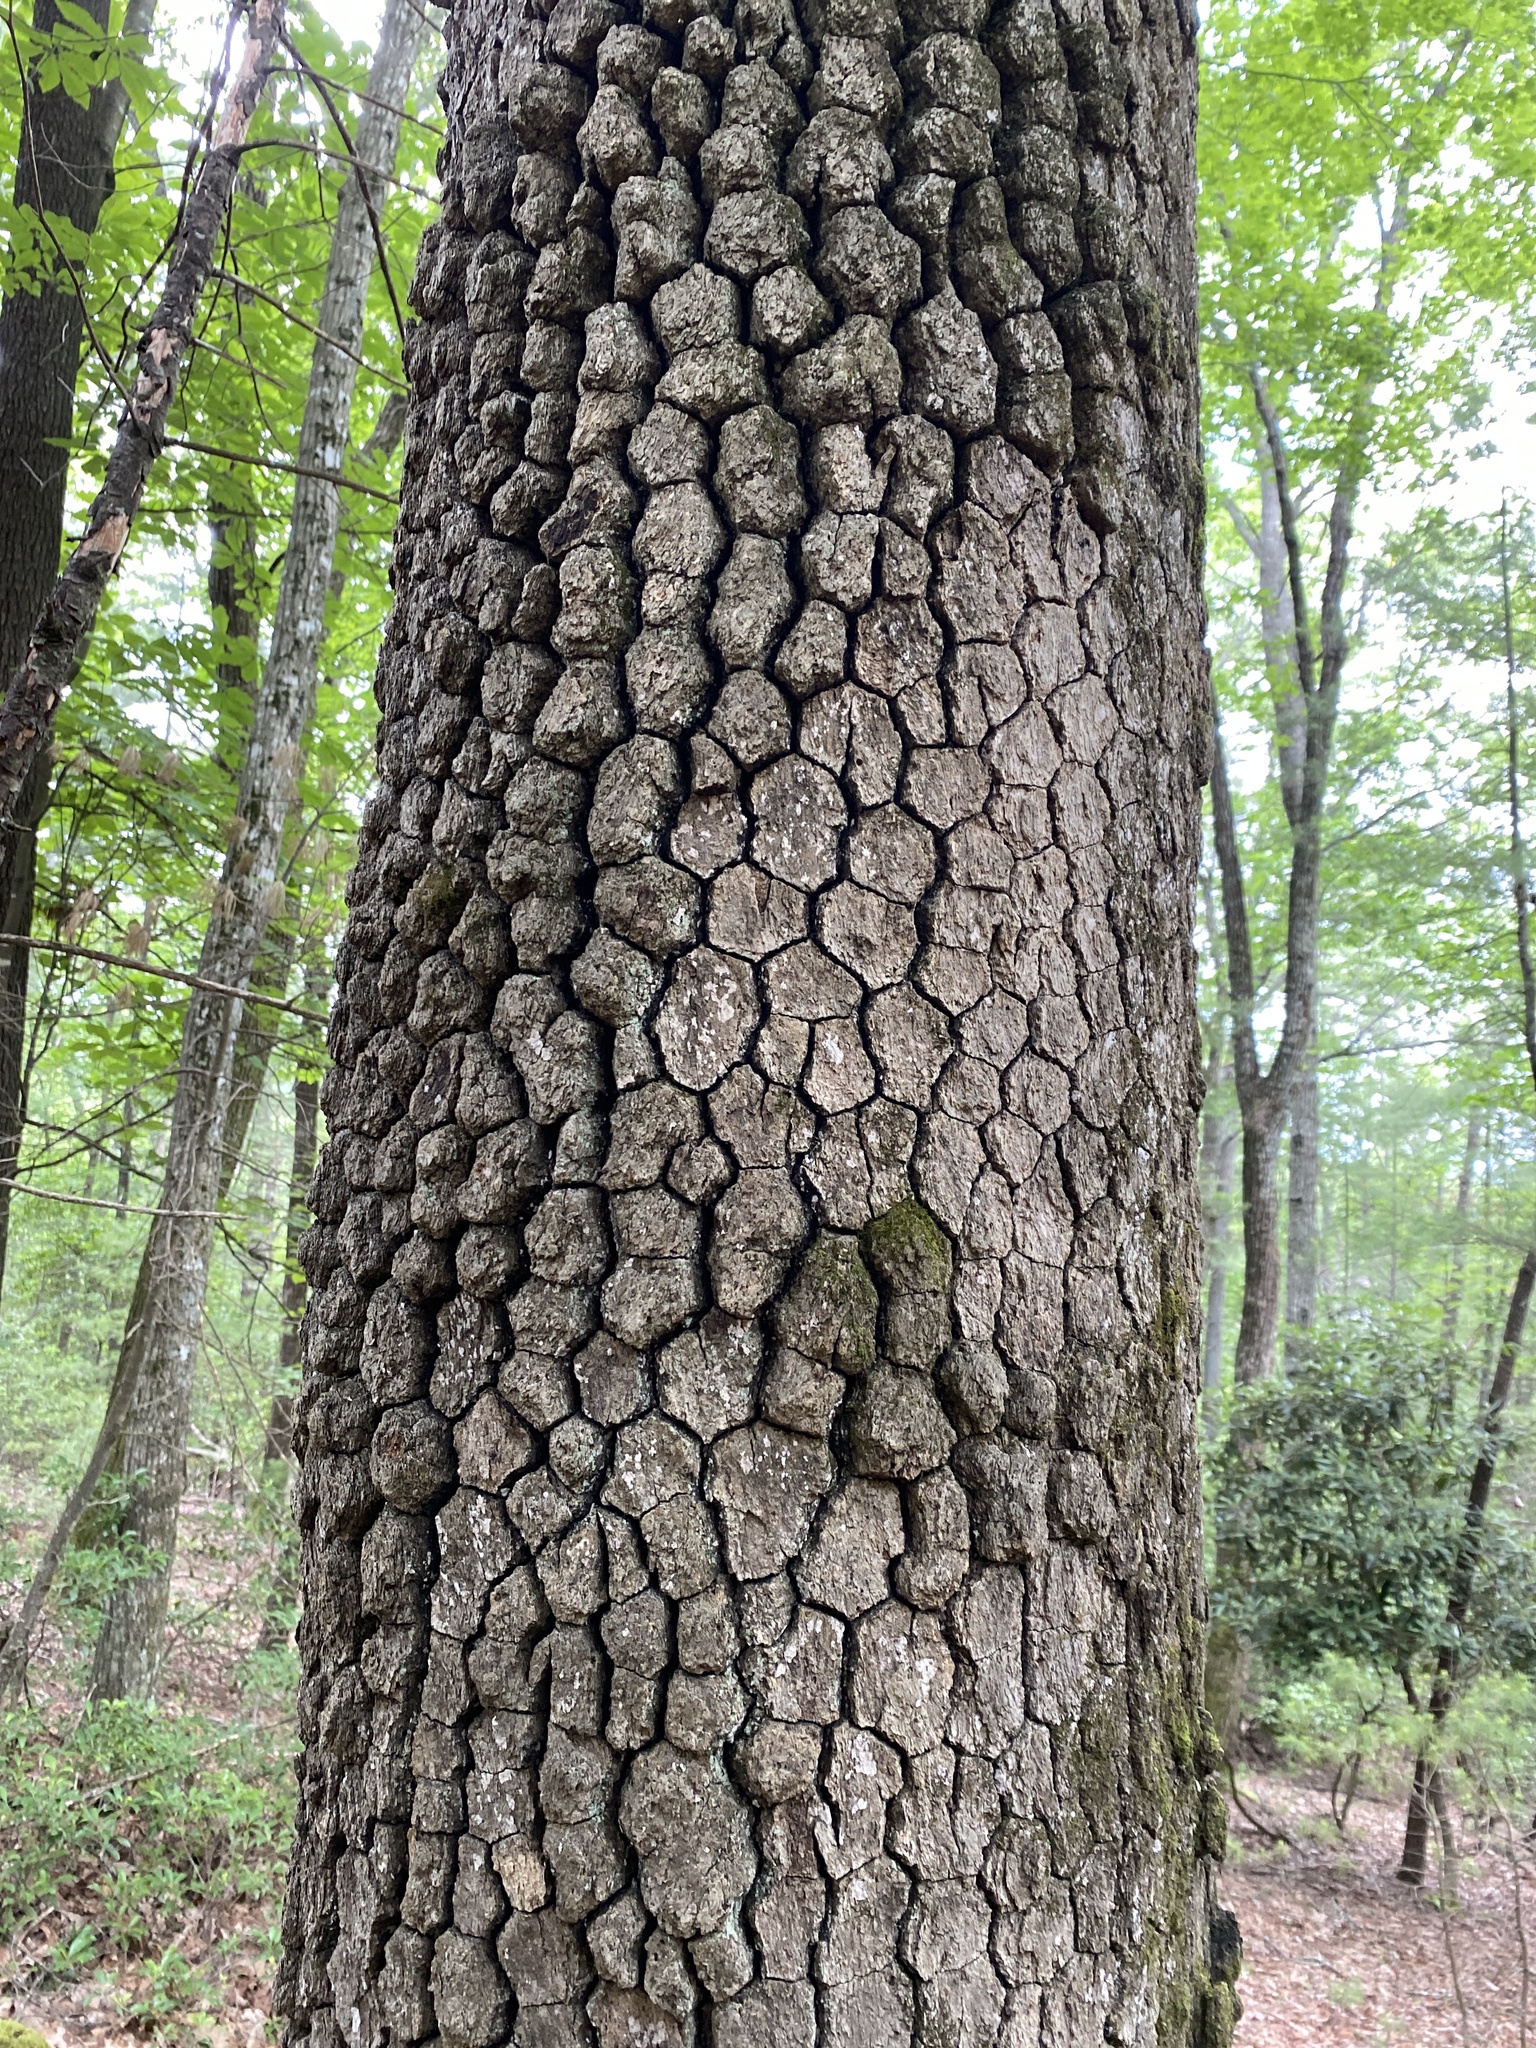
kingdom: Plantae
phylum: Tracheophyta
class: Magnoliopsida
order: Cornales
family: Nyssaceae
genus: Nyssa
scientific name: Nyssa sylvatica
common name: Black tupelo
